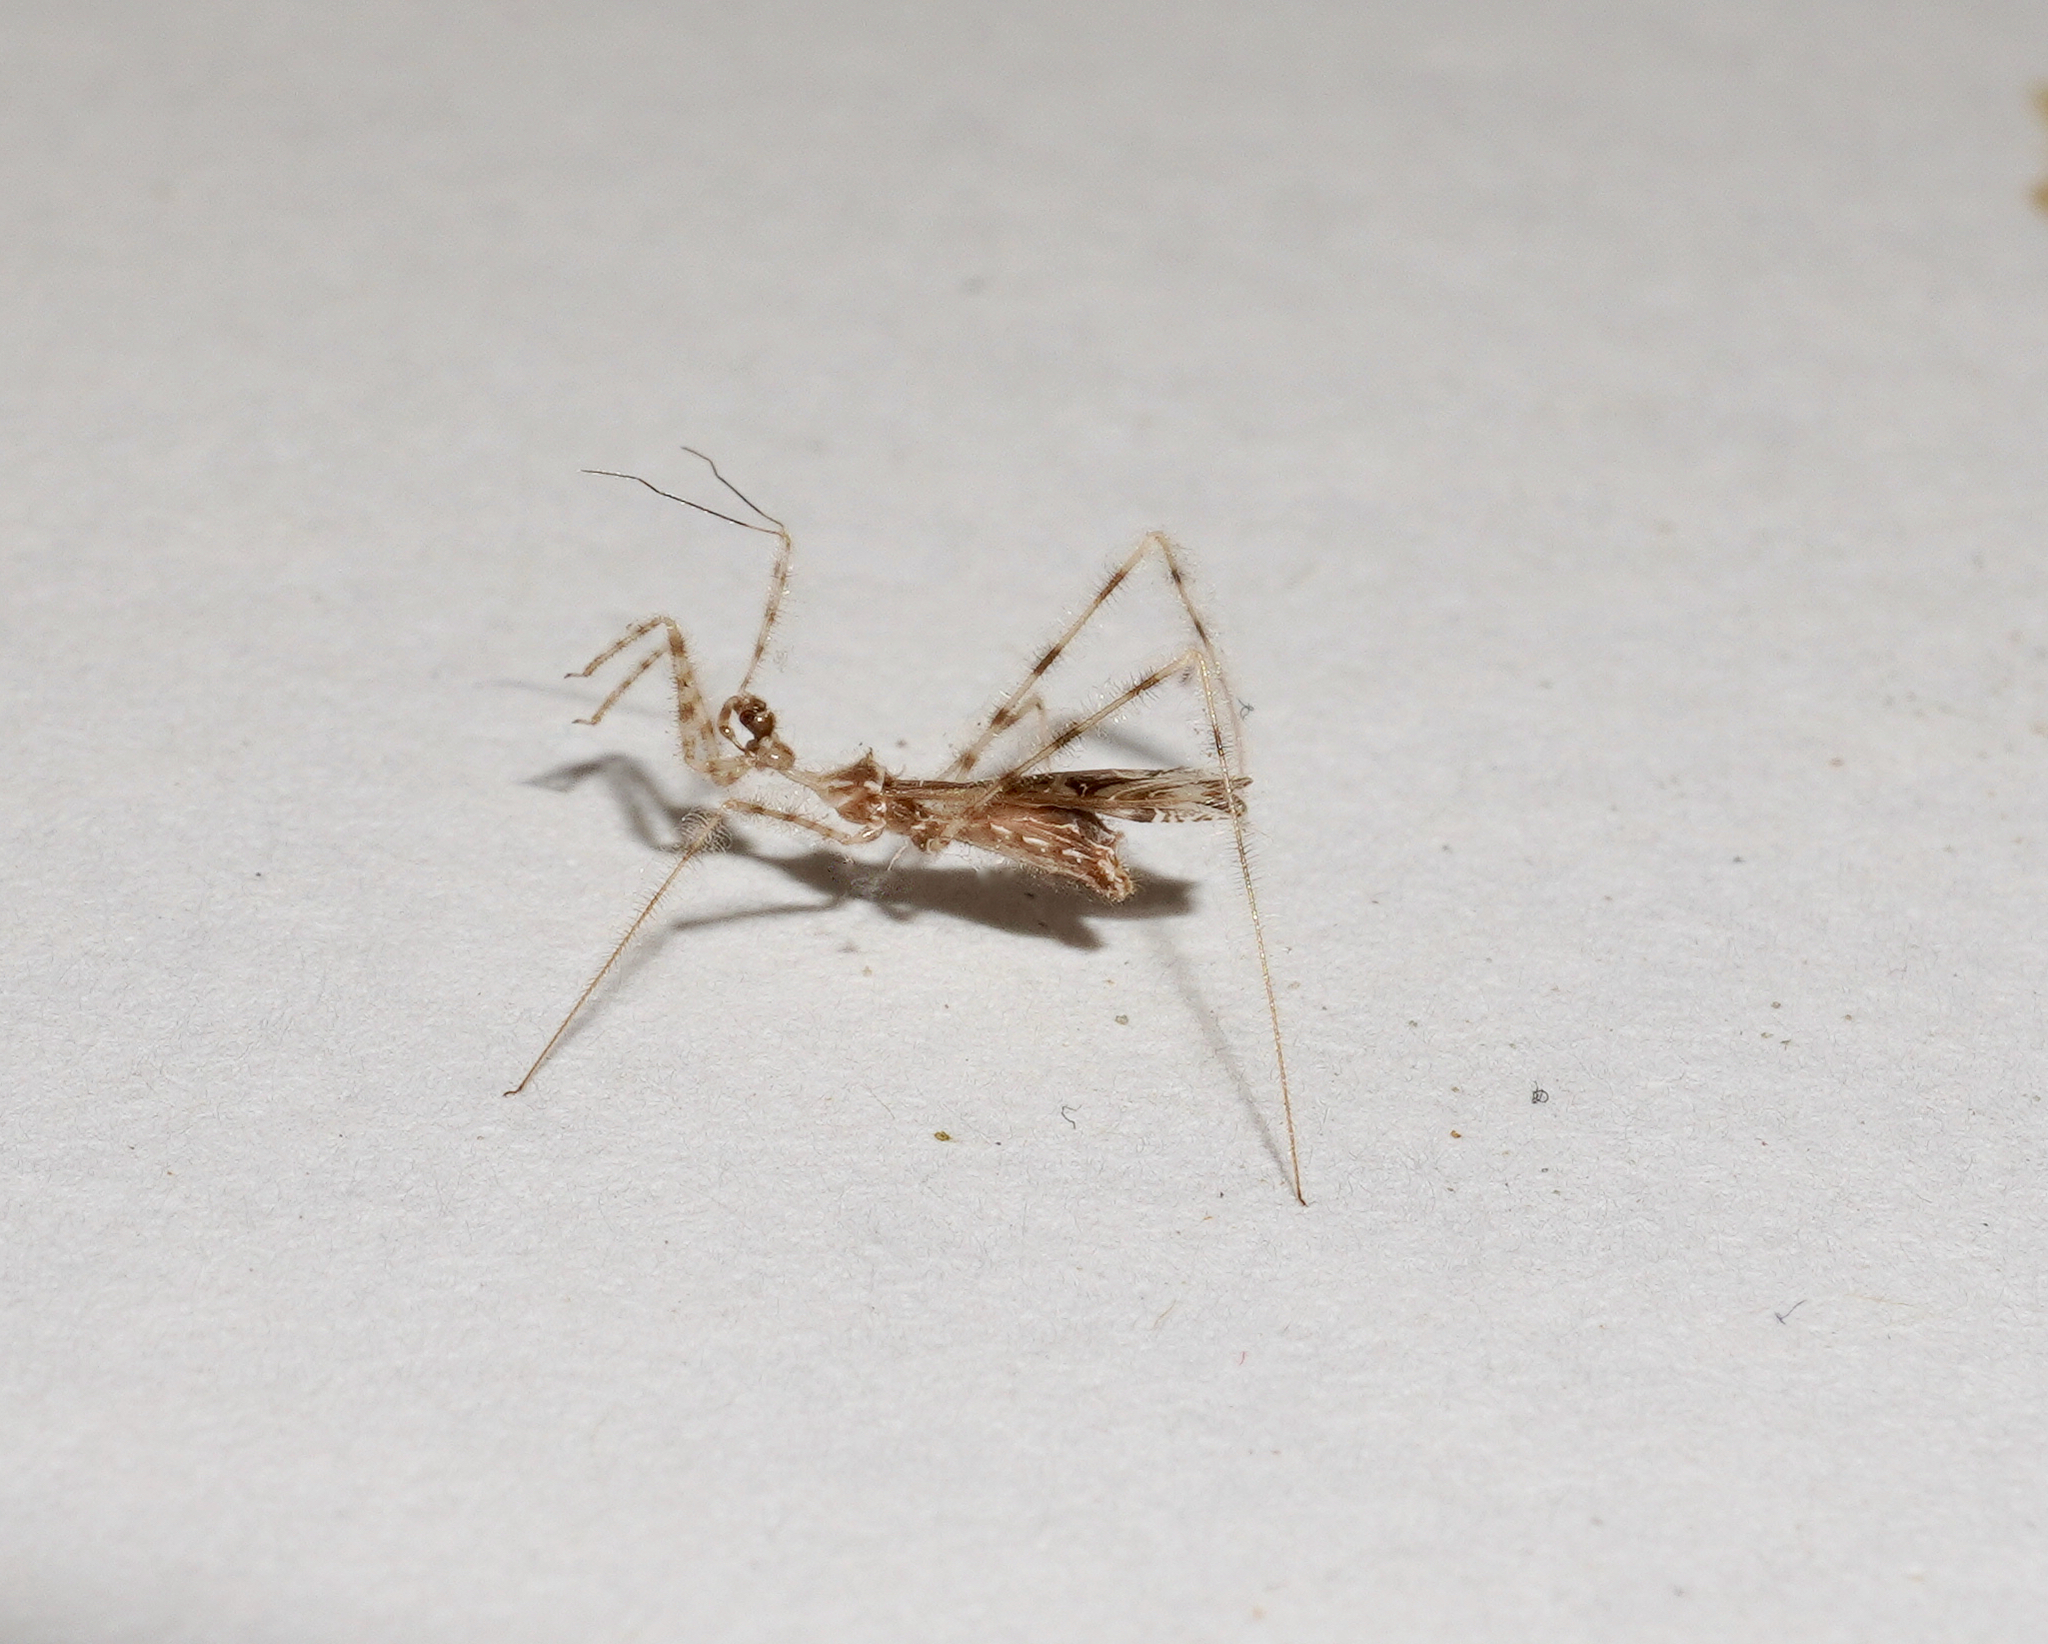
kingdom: Animalia
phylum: Arthropoda
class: Insecta
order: Hemiptera
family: Reduviidae
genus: Stenolemus
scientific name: Stenolemus fraterculus
